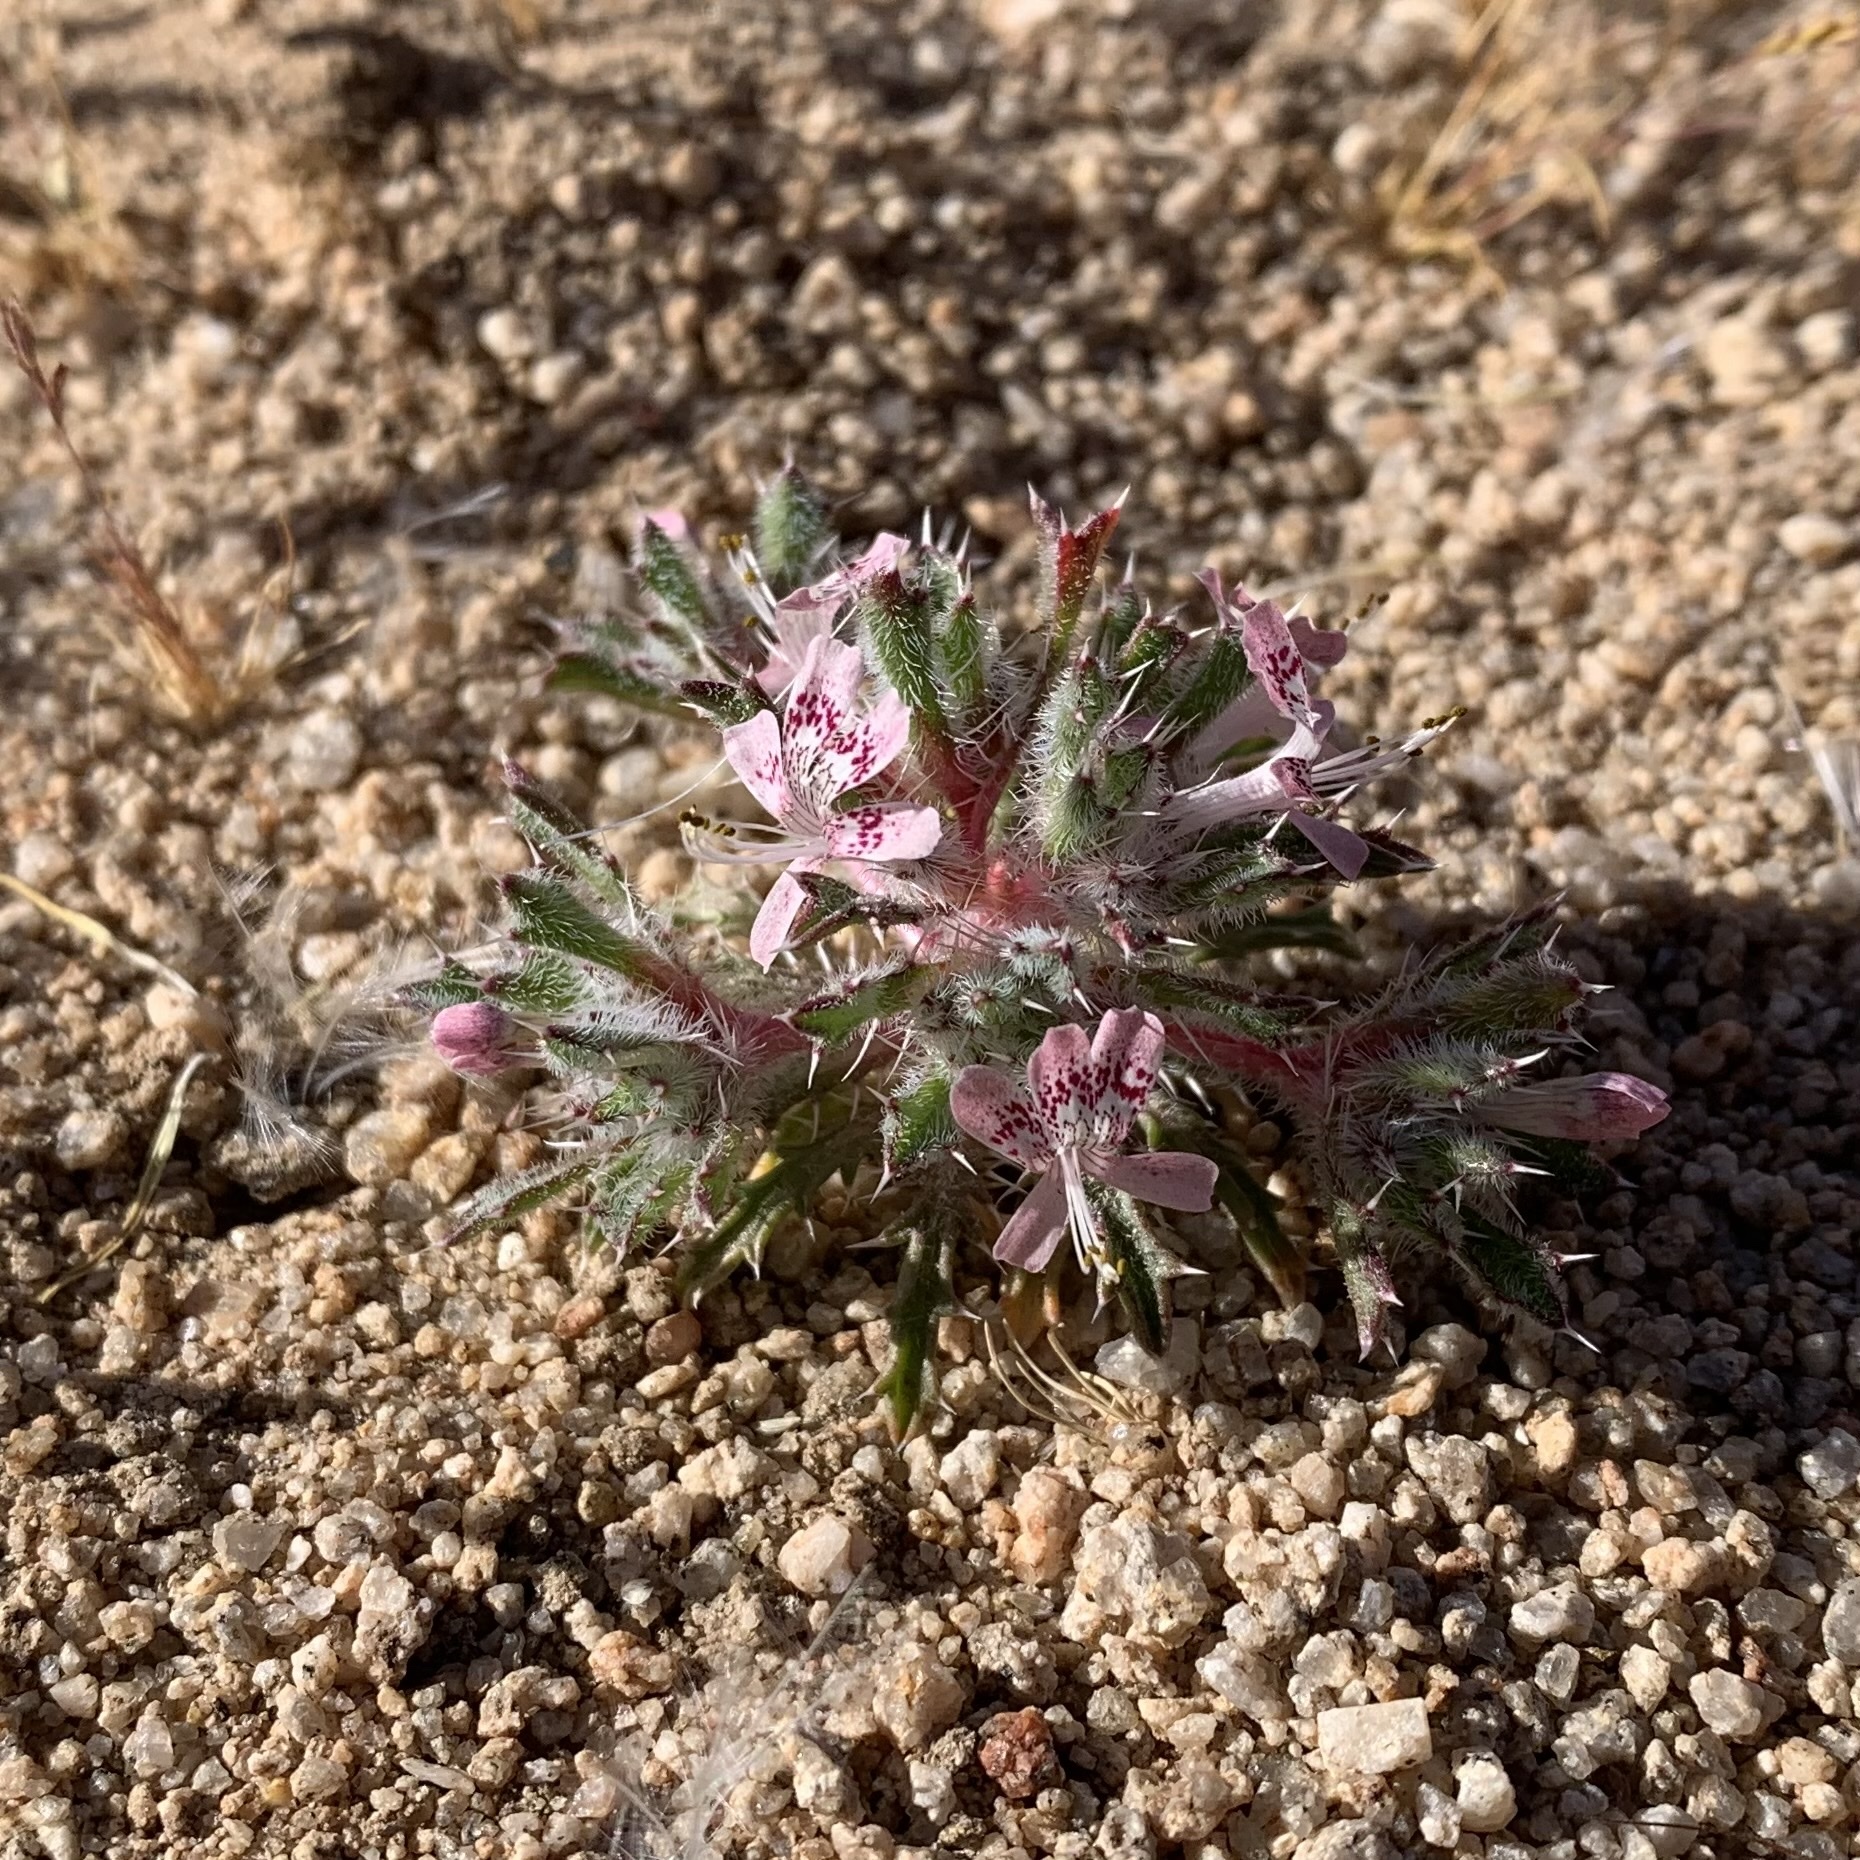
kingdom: Plantae
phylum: Tracheophyta
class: Magnoliopsida
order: Ericales
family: Polemoniaceae
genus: Loeseliastrum
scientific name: Loeseliastrum matthewsii
